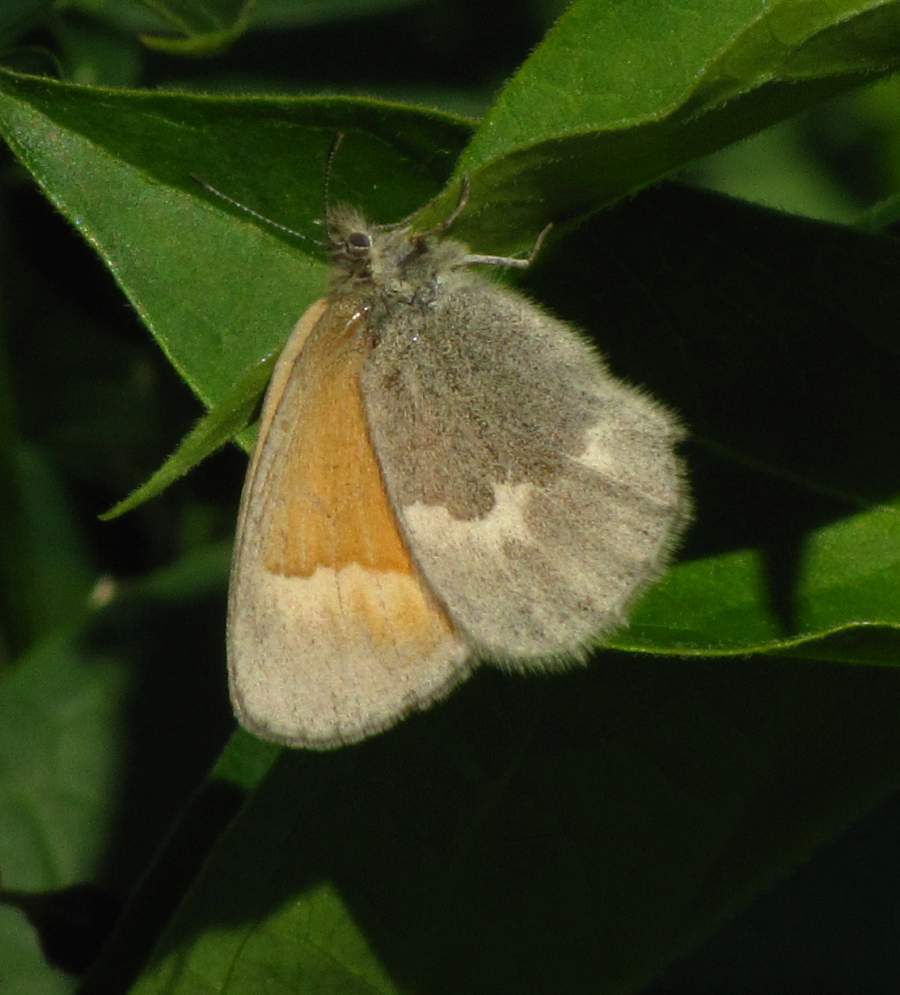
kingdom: Animalia
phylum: Arthropoda
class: Insecta
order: Lepidoptera
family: Nymphalidae
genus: Coenonympha
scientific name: Coenonympha california
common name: Common ringlet
